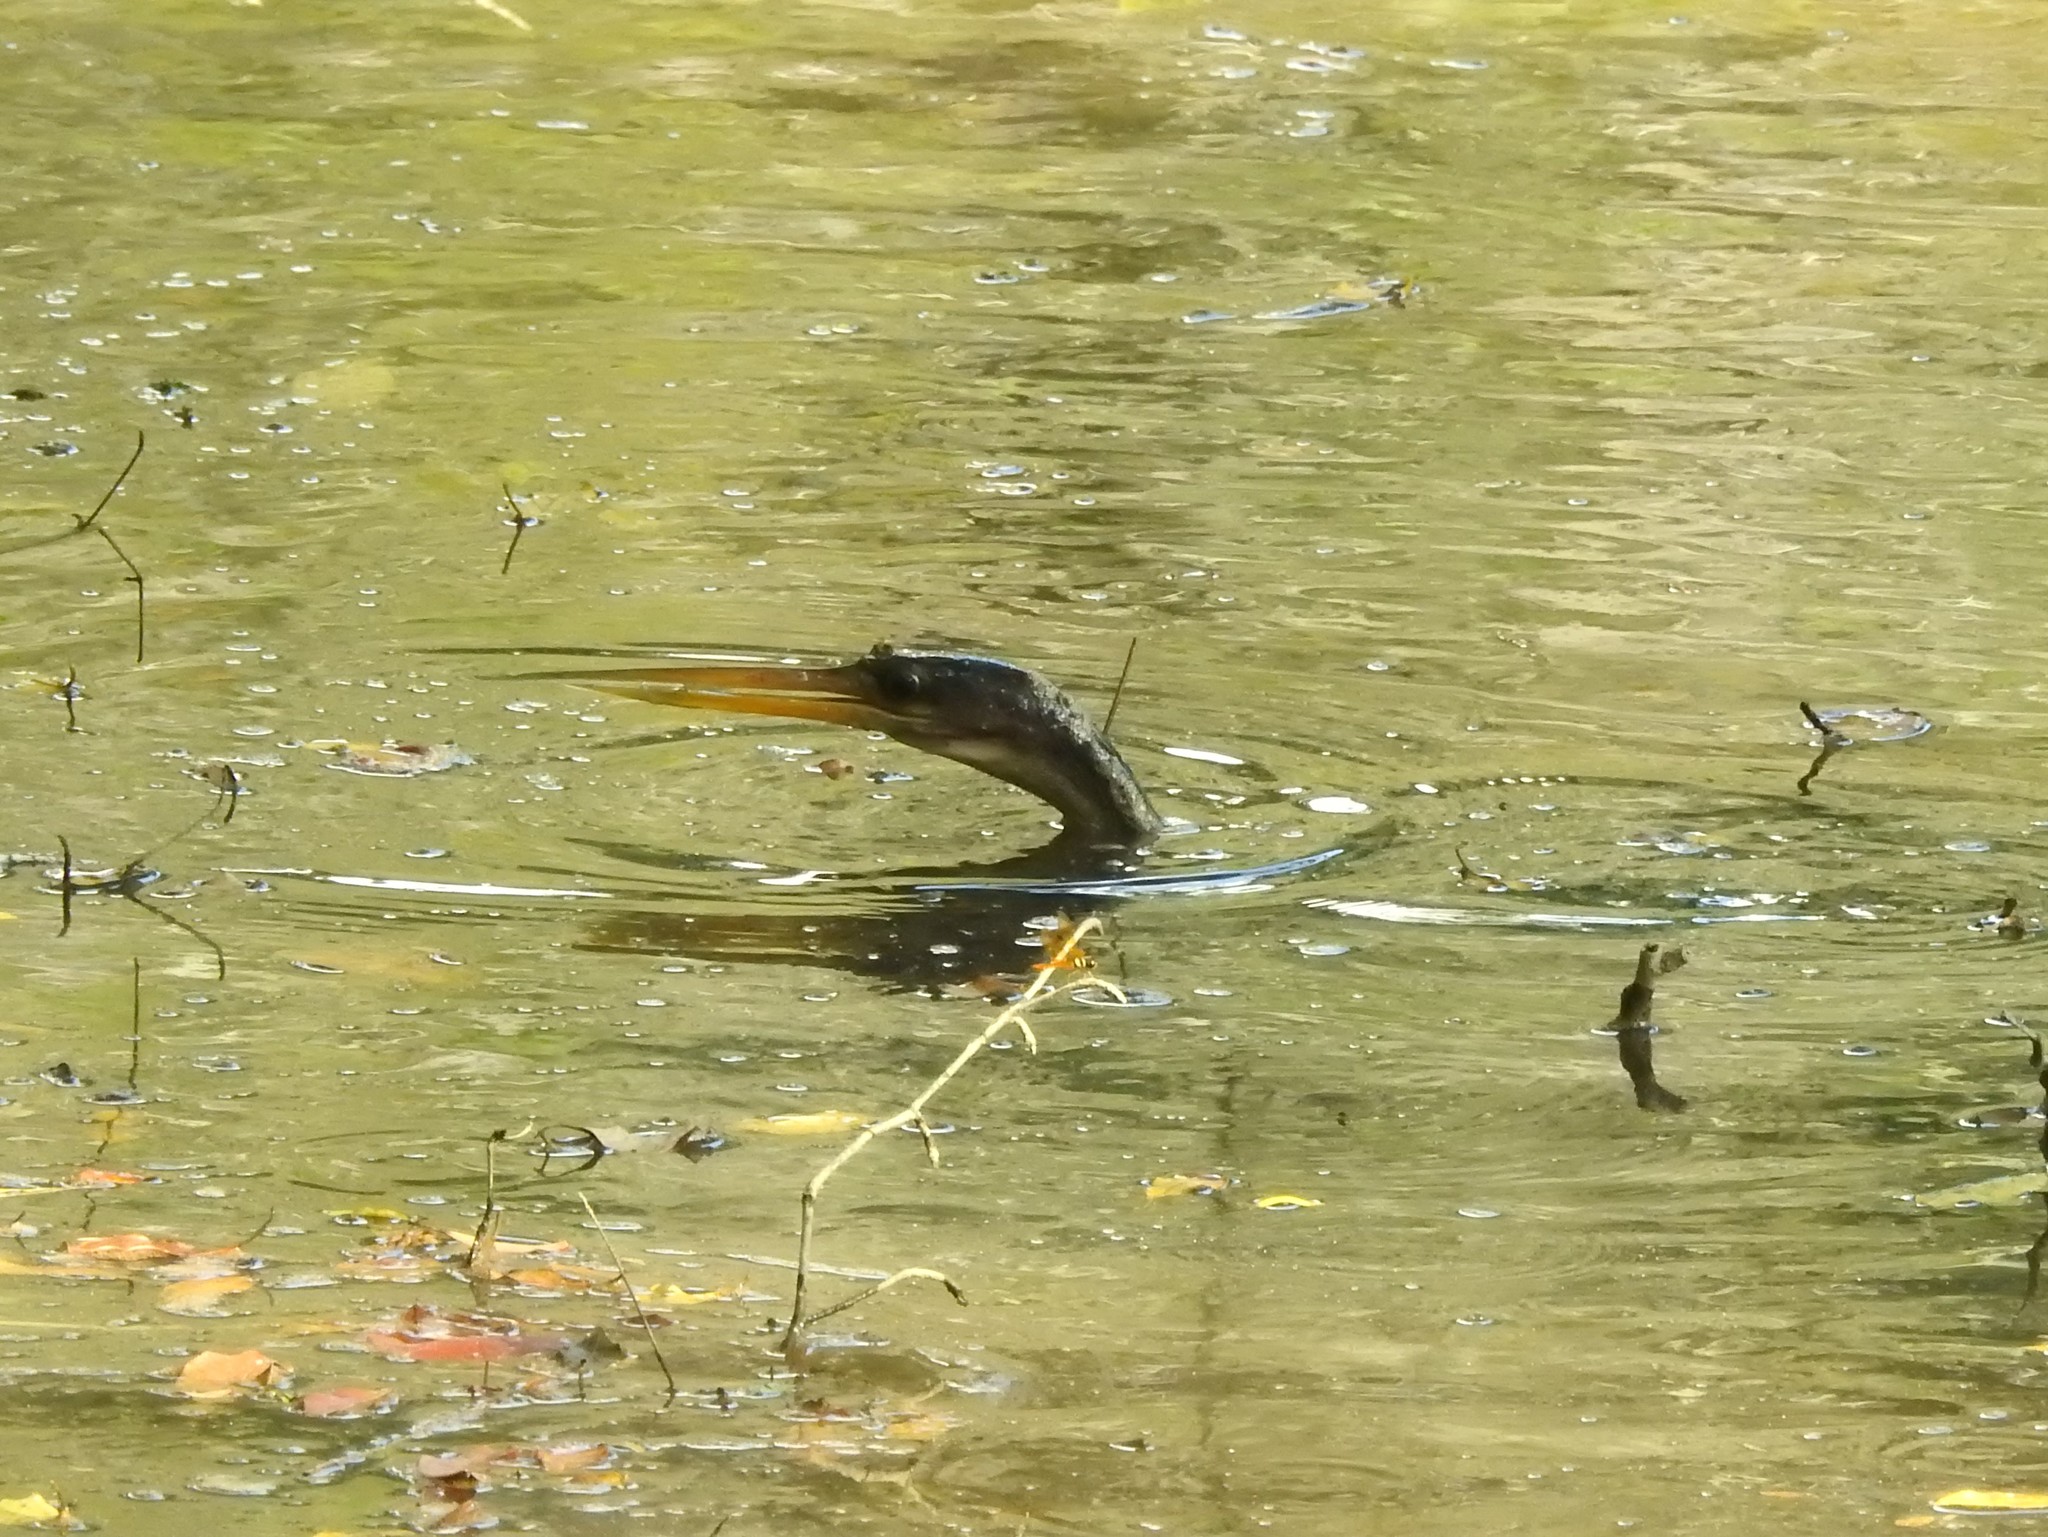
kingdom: Animalia
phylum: Chordata
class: Aves
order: Suliformes
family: Anhingidae
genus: Anhinga
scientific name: Anhinga anhinga
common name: Anhinga
